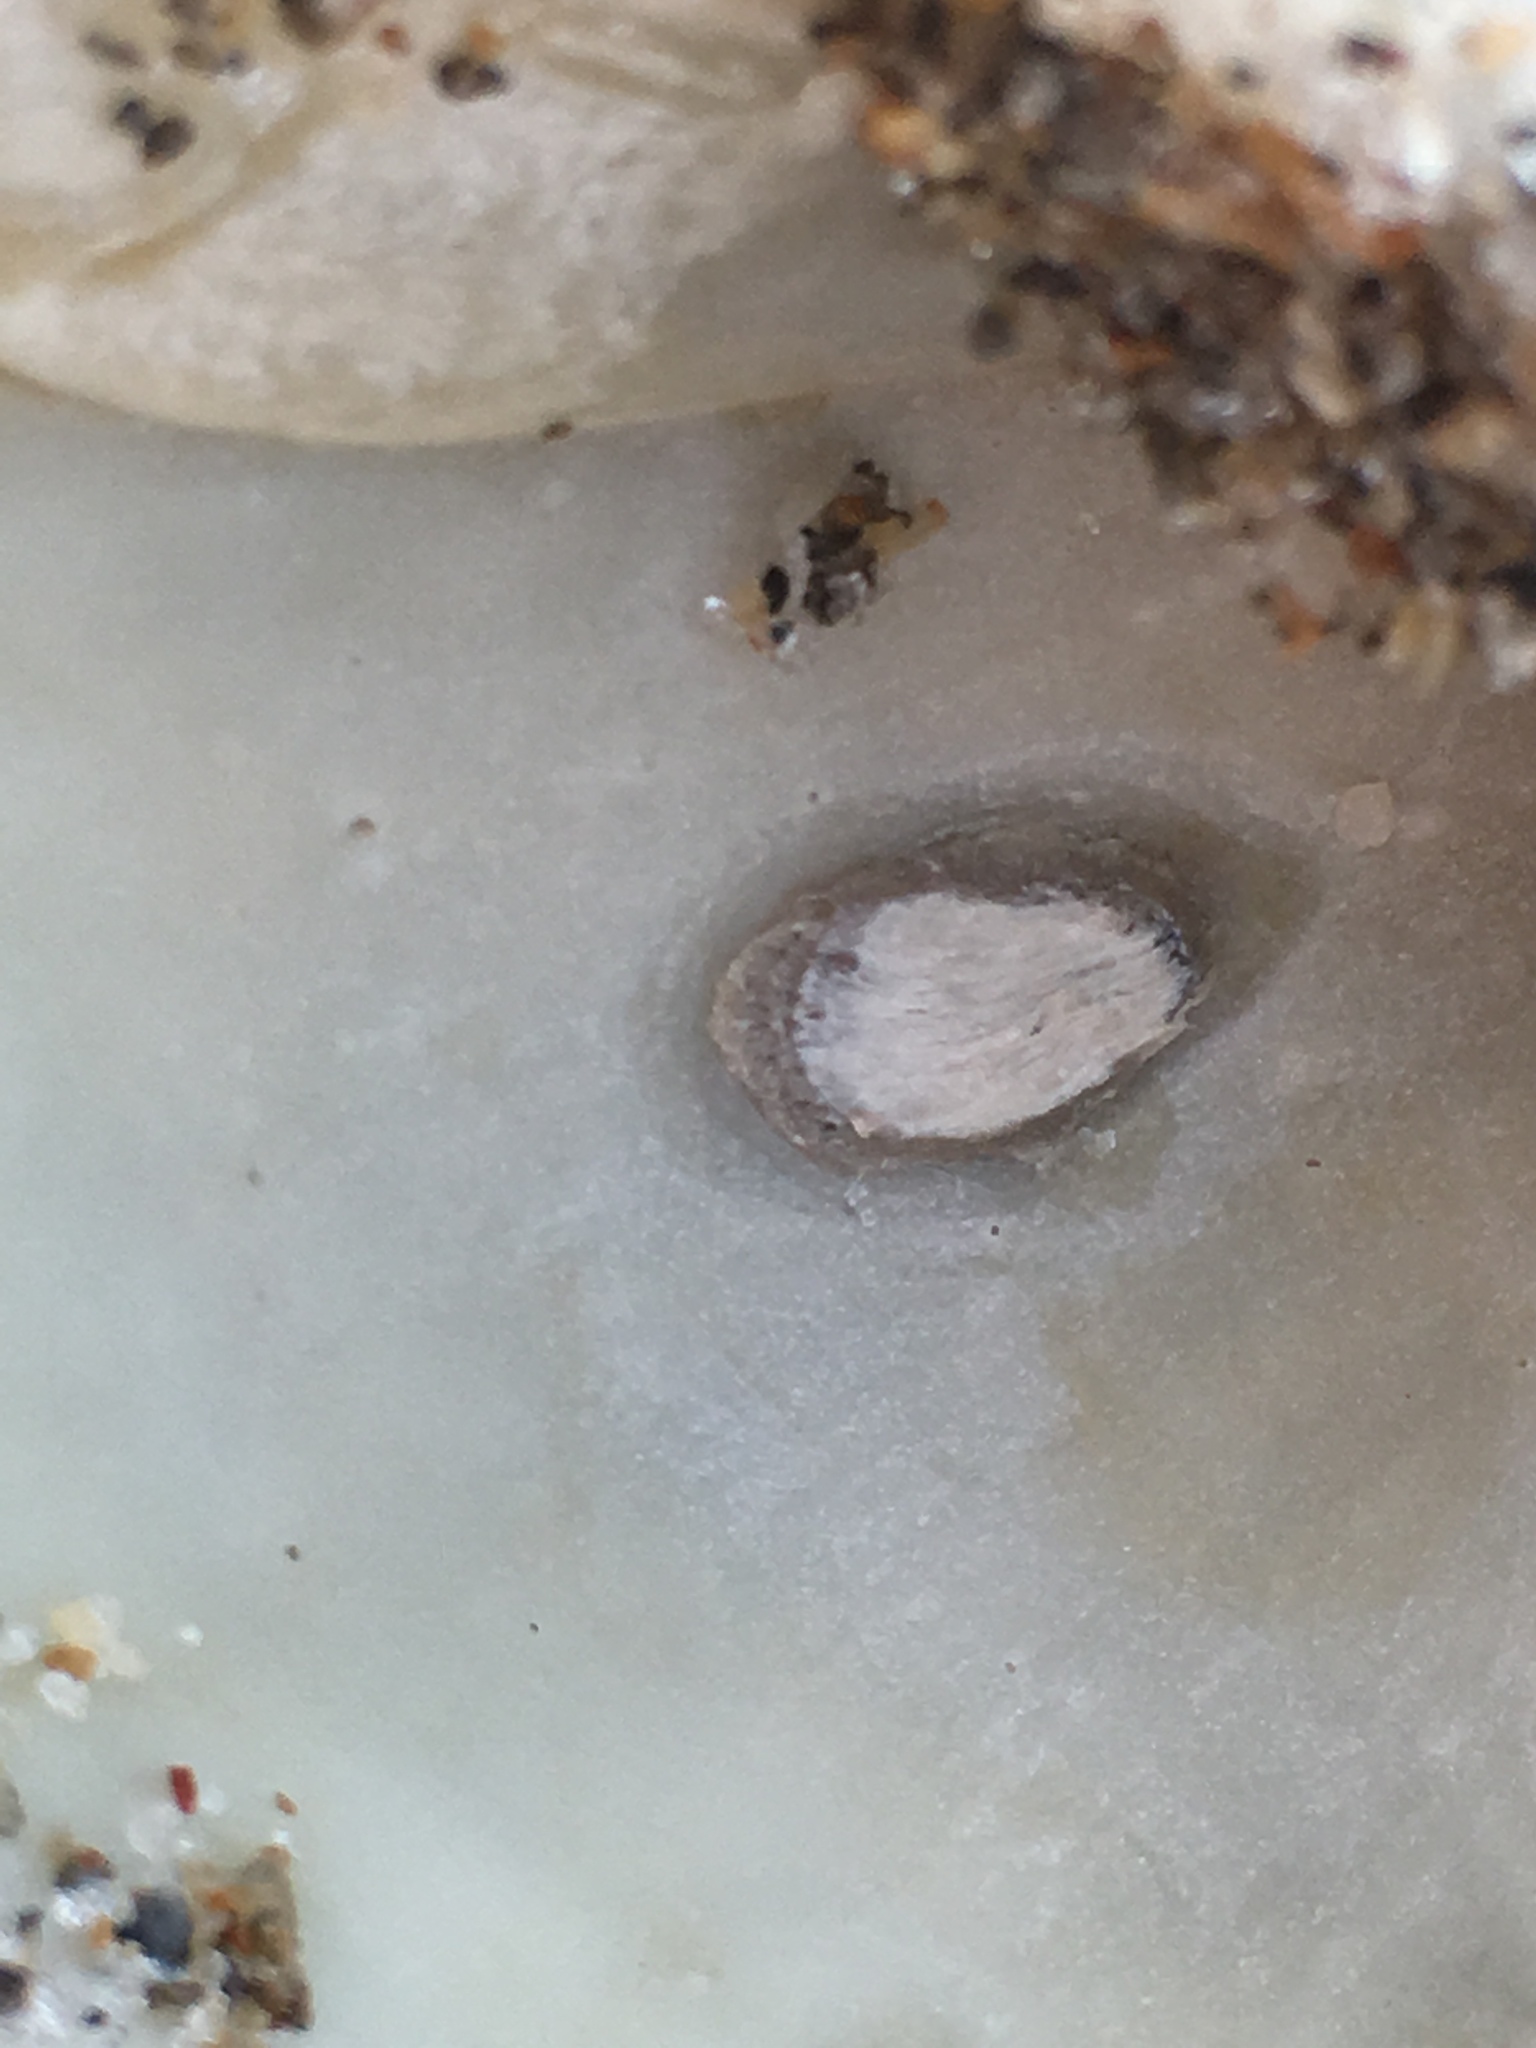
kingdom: Animalia
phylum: Mollusca
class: Bivalvia
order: Arcida
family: Noetiidae
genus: Noetia
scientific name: Noetia ponderosa
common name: Ponderous ark
